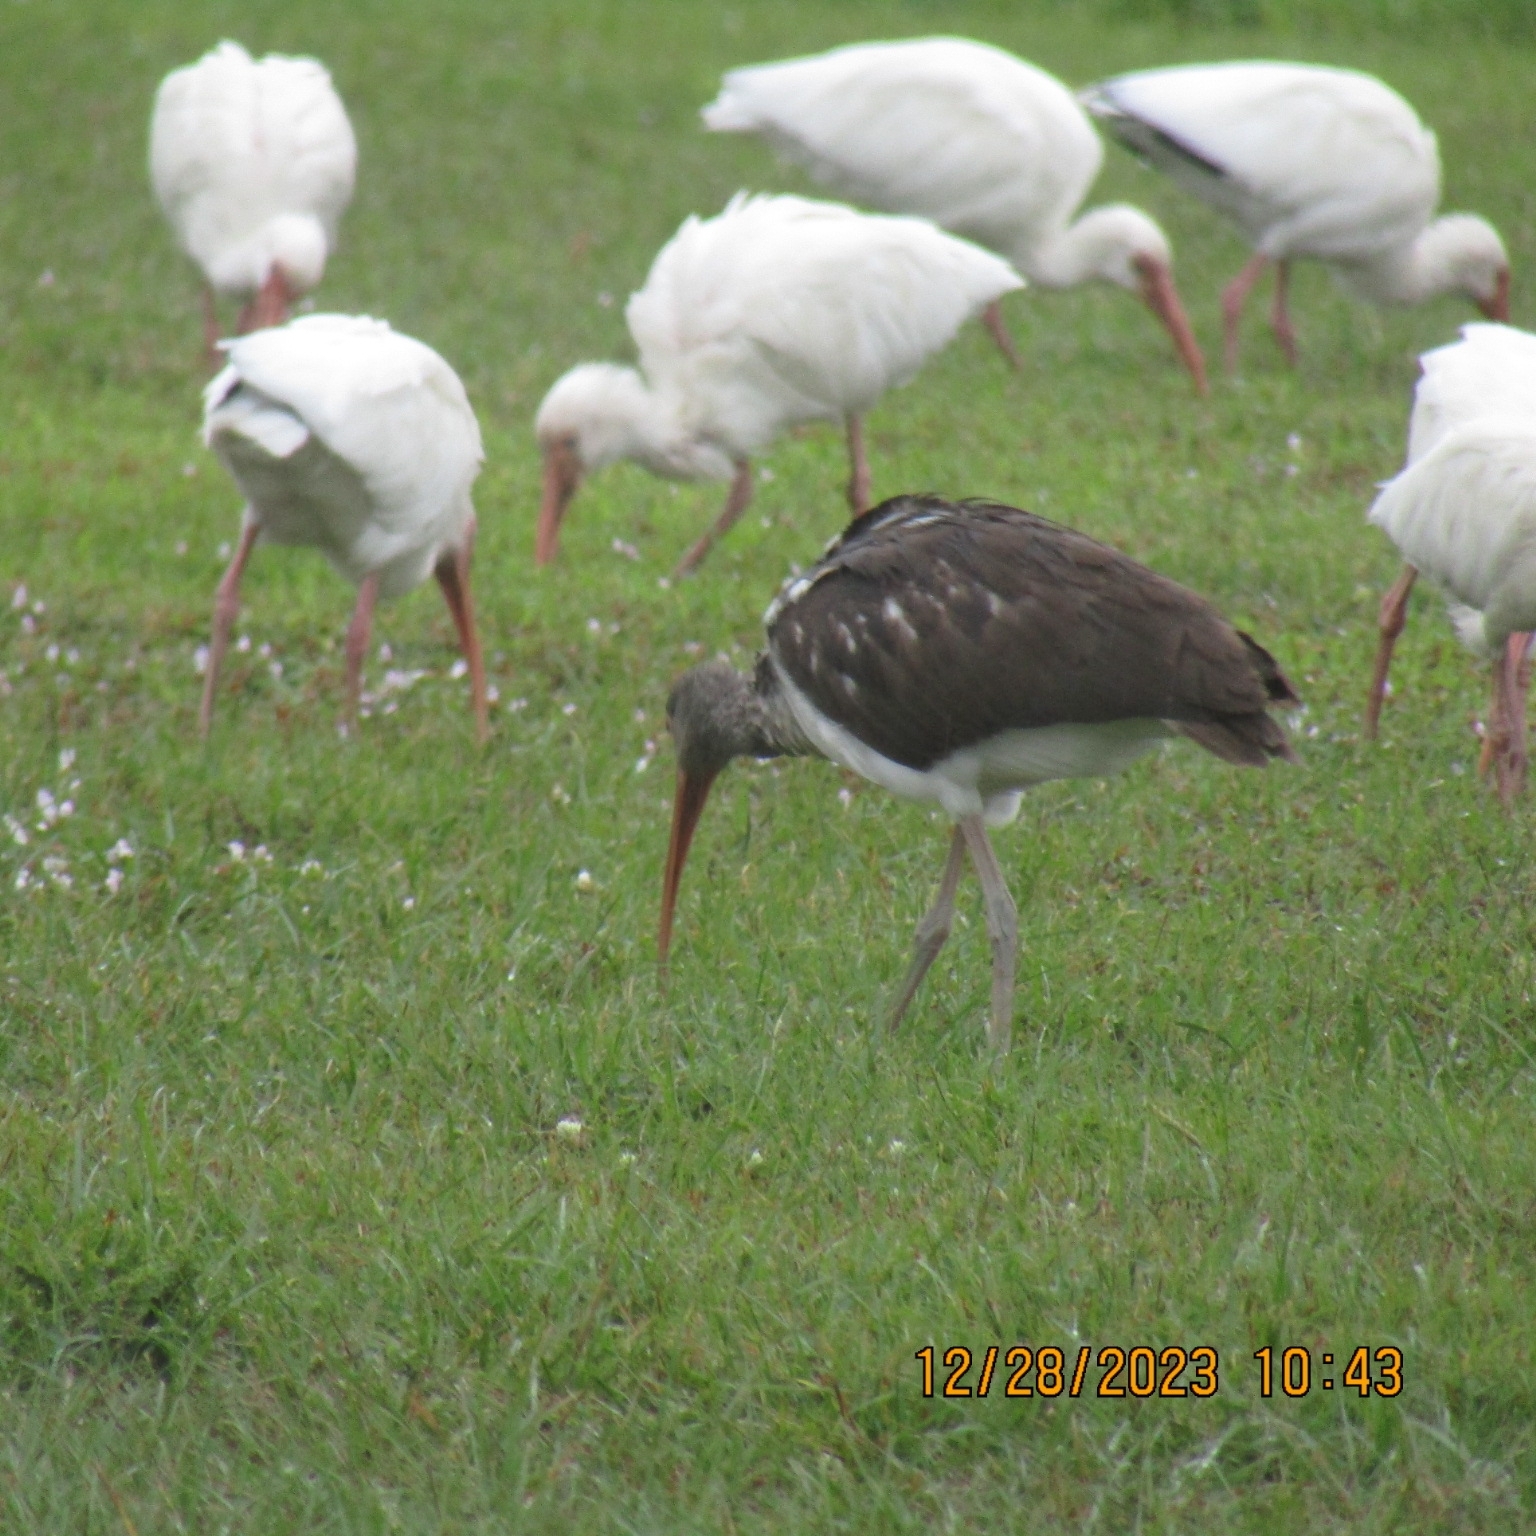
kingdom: Animalia
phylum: Chordata
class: Aves
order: Pelecaniformes
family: Threskiornithidae
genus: Eudocimus
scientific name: Eudocimus albus
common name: White ibis
